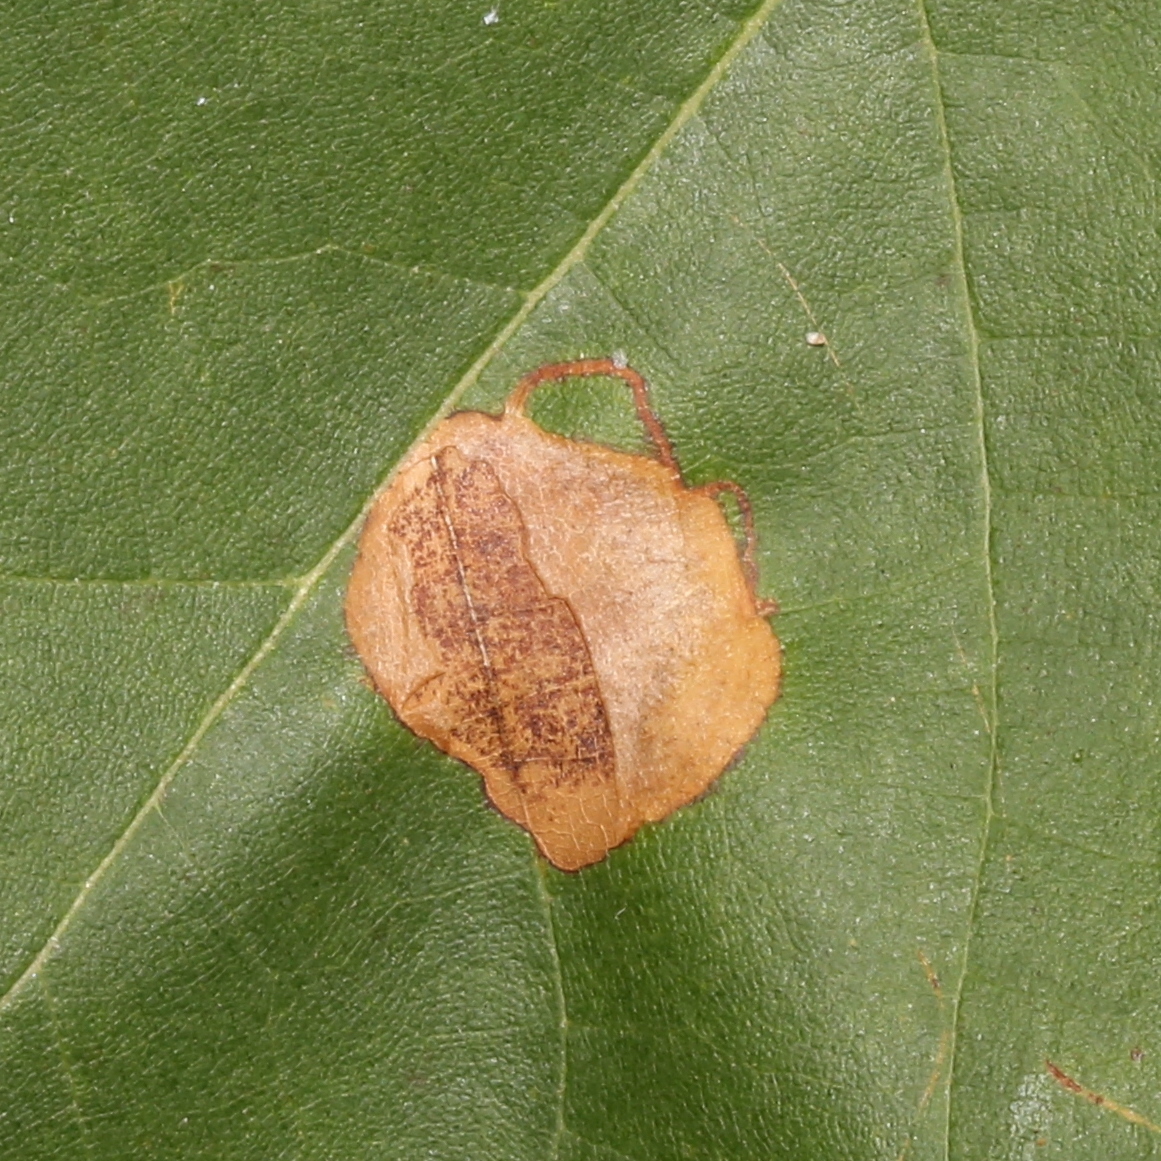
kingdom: Animalia
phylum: Arthropoda
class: Insecta
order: Lepidoptera
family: Nepticulidae
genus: Ectoedemia
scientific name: Ectoedemia platanella
